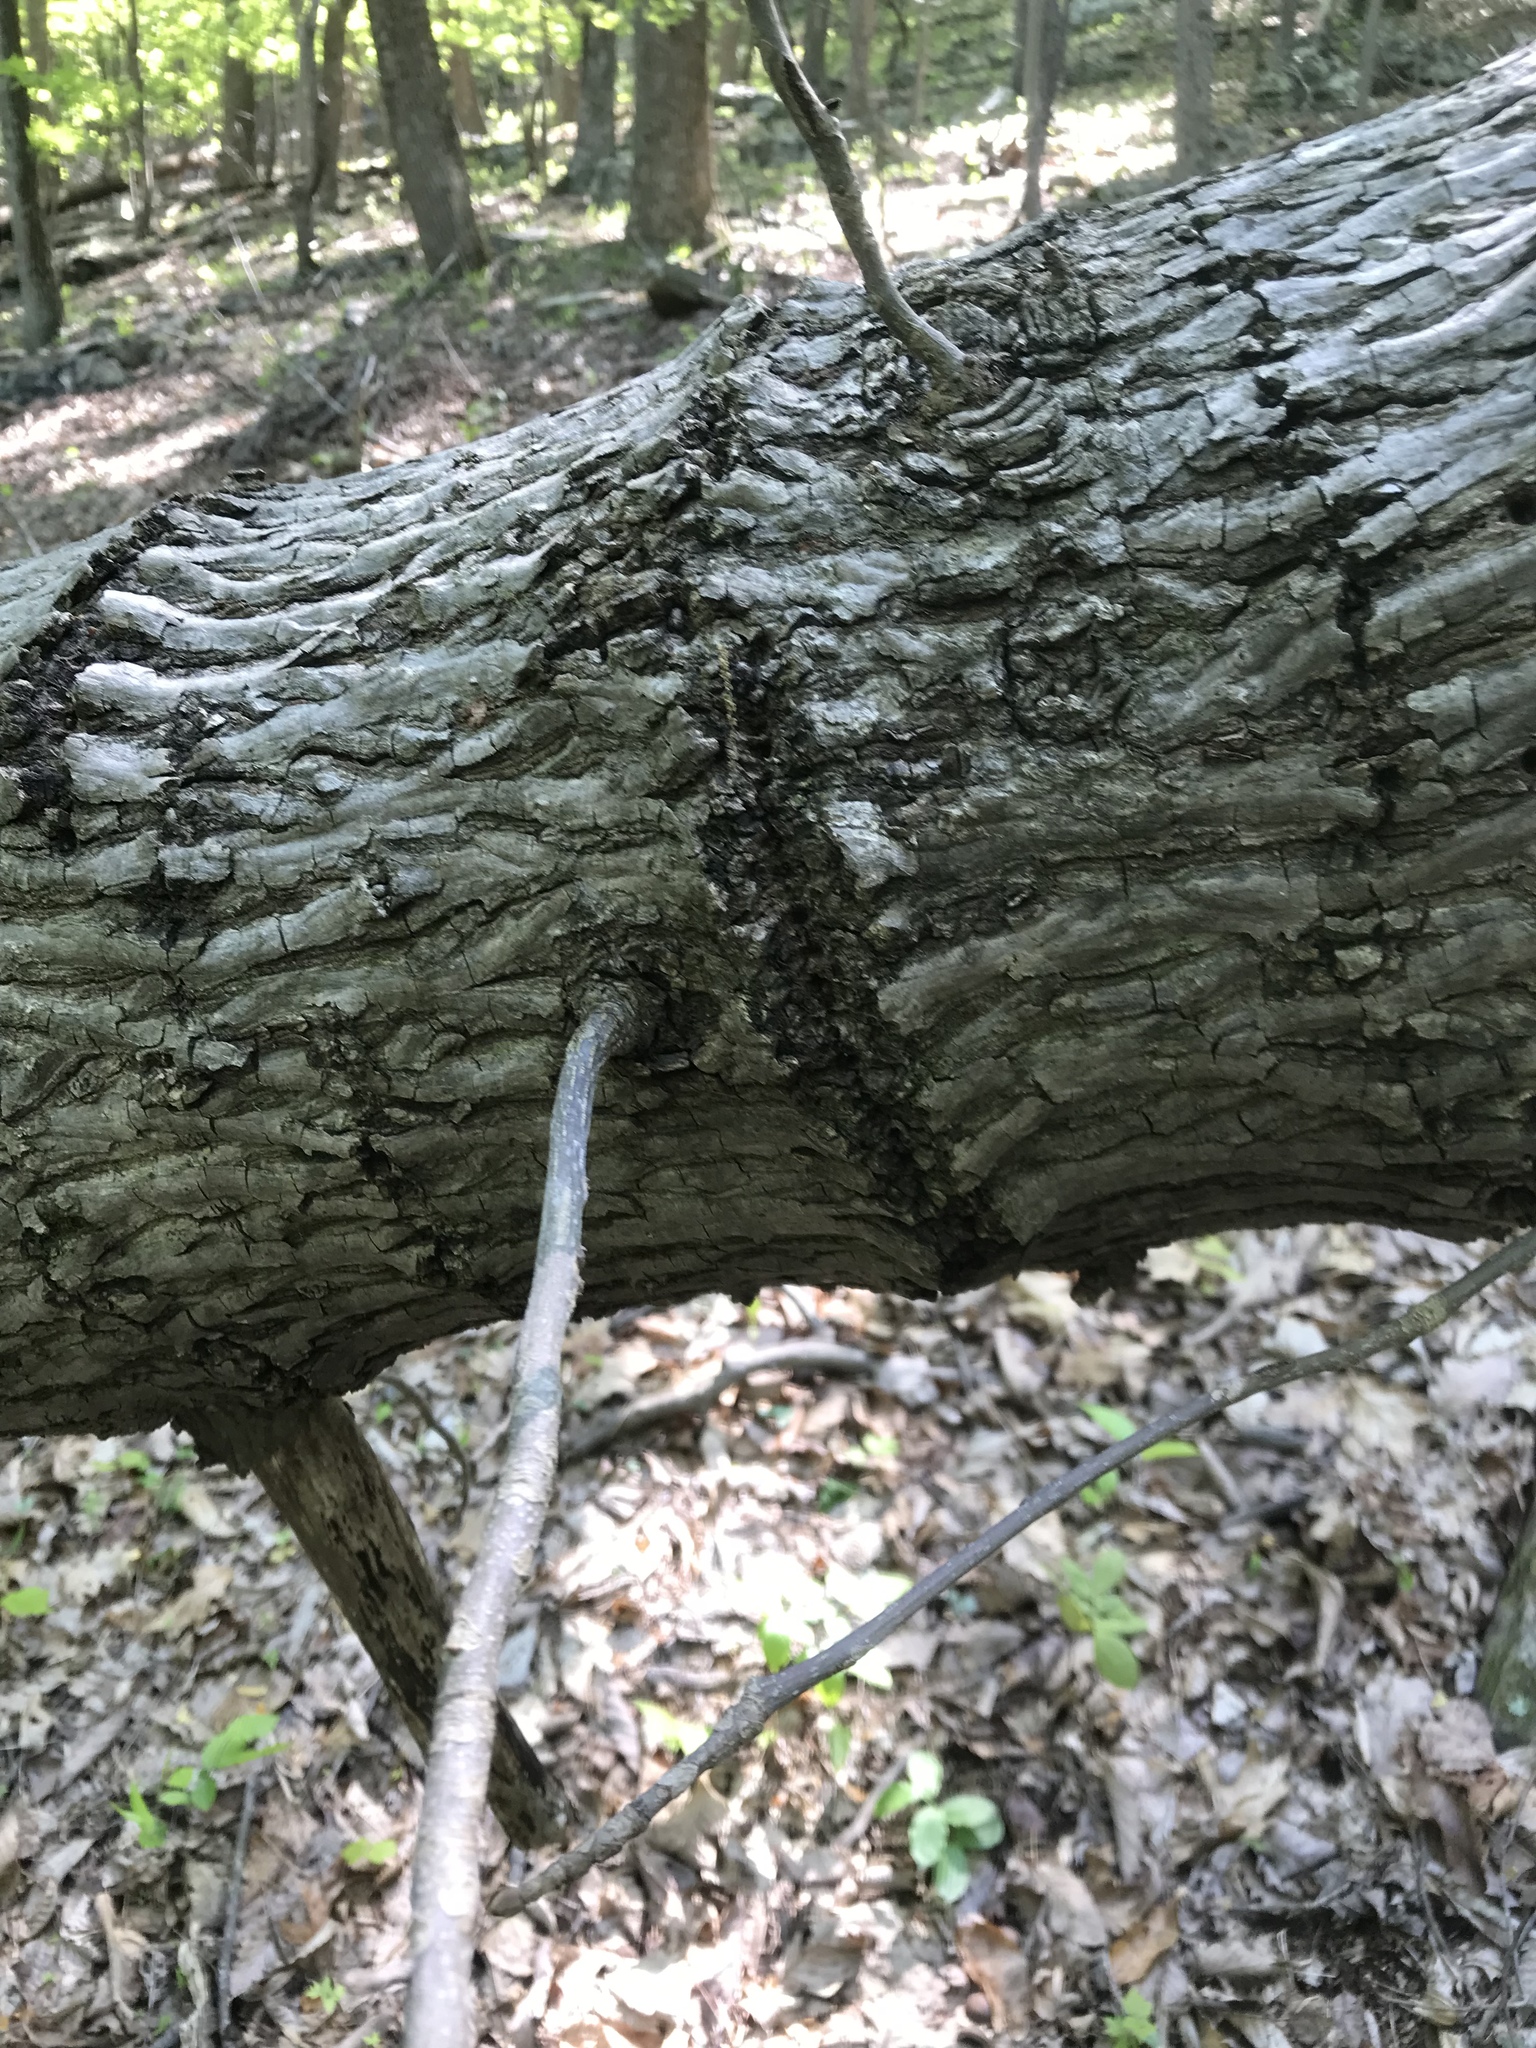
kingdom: Animalia
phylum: Chordata
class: Aves
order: Piciformes
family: Picidae
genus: Sphyrapicus
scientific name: Sphyrapicus varius
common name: Yellow-bellied sapsucker
